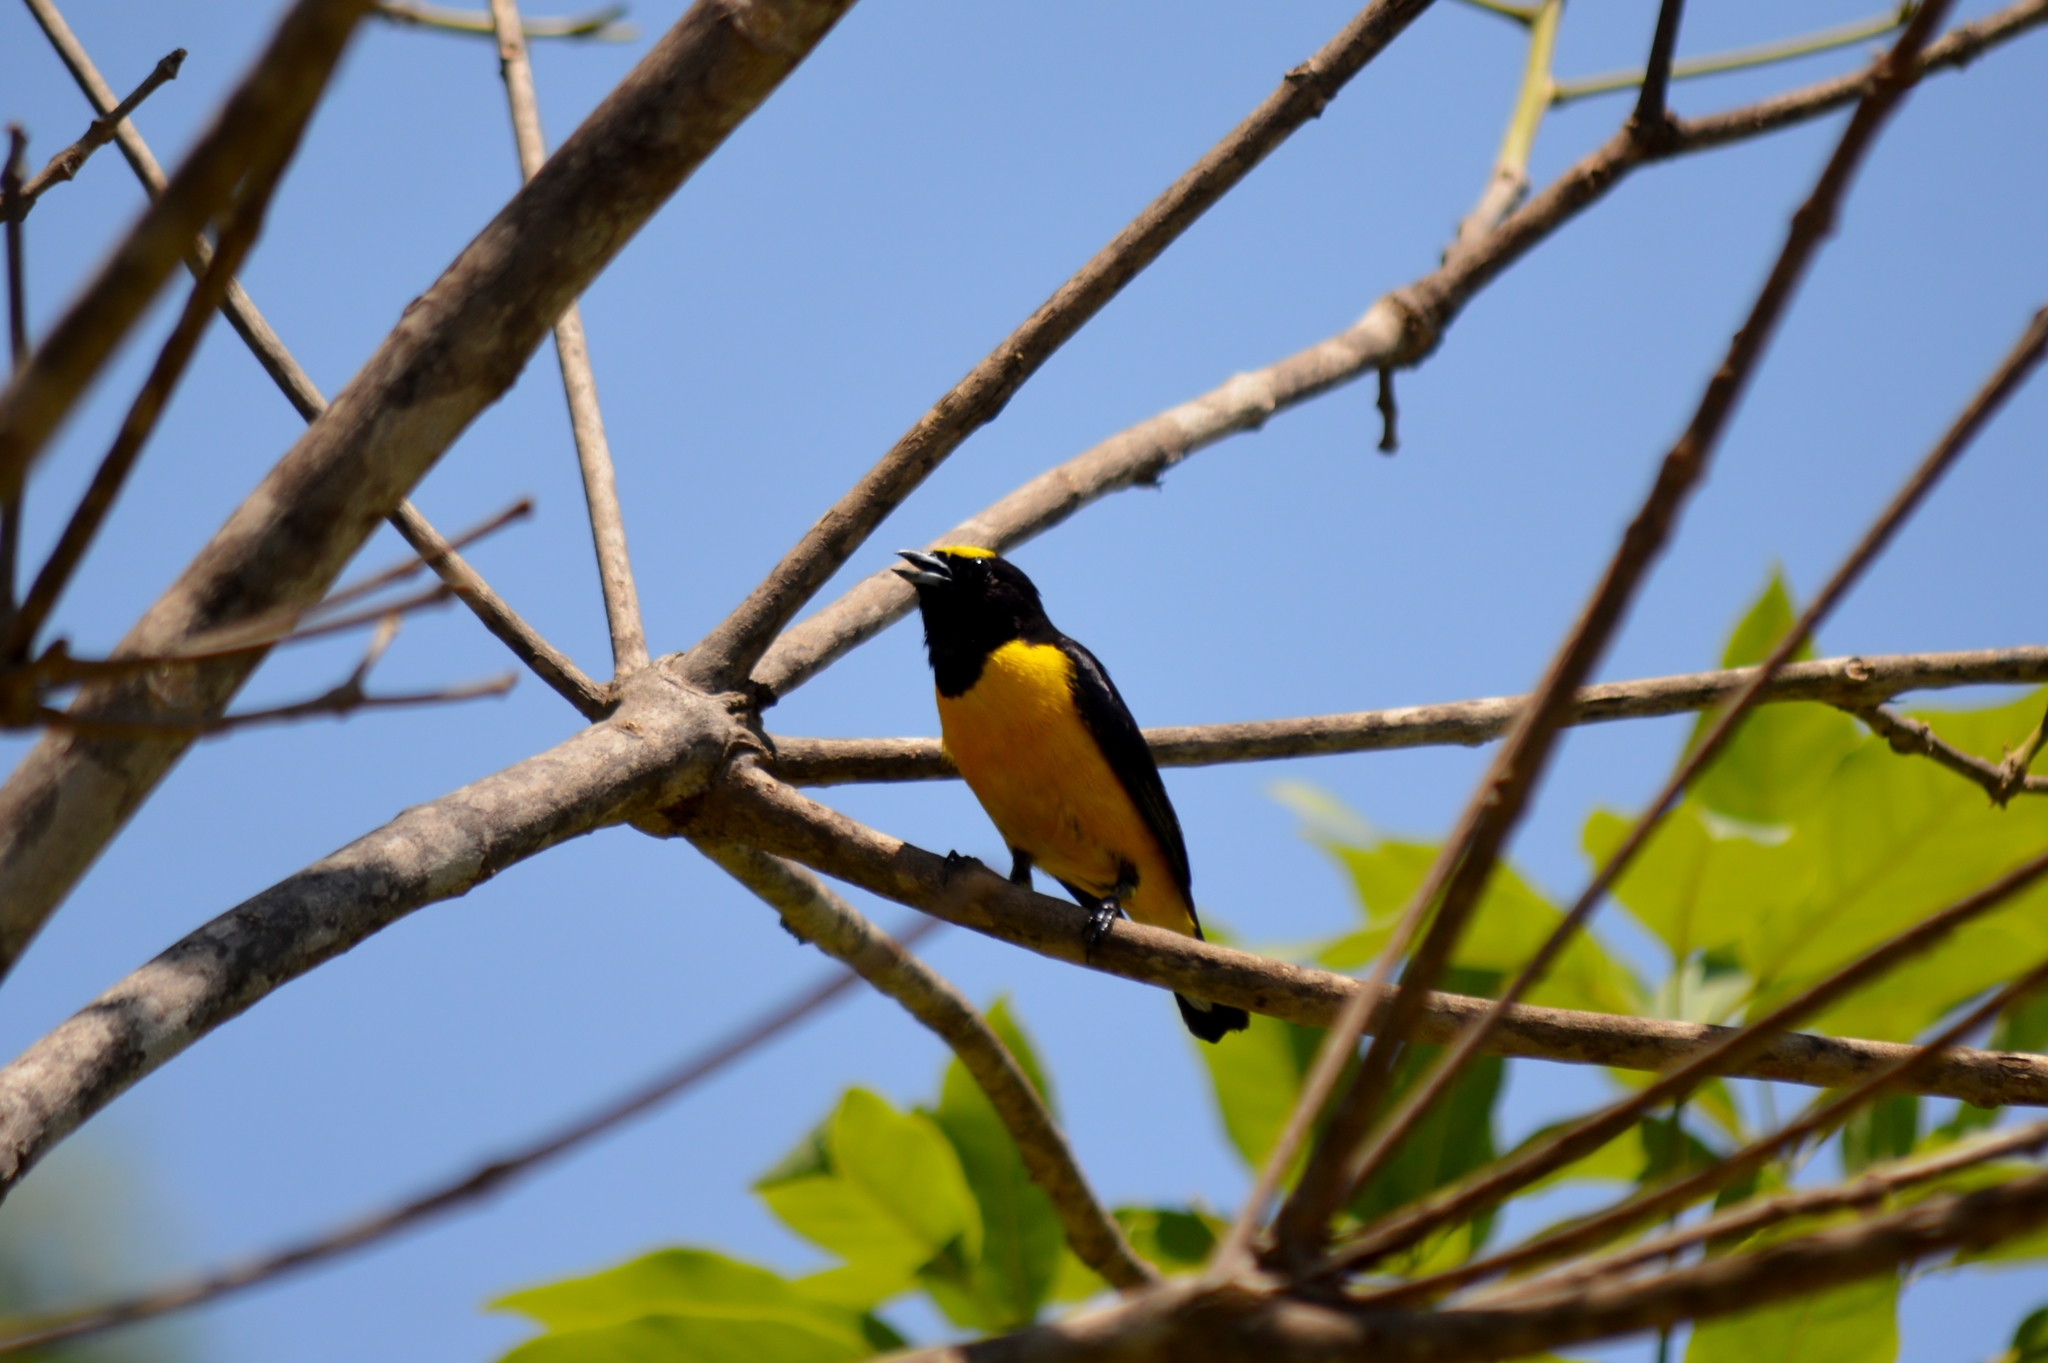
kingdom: Animalia
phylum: Chordata
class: Aves
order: Passeriformes
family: Fringillidae
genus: Euphonia
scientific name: Euphonia chlorotica
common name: Purple-throated euphonia
